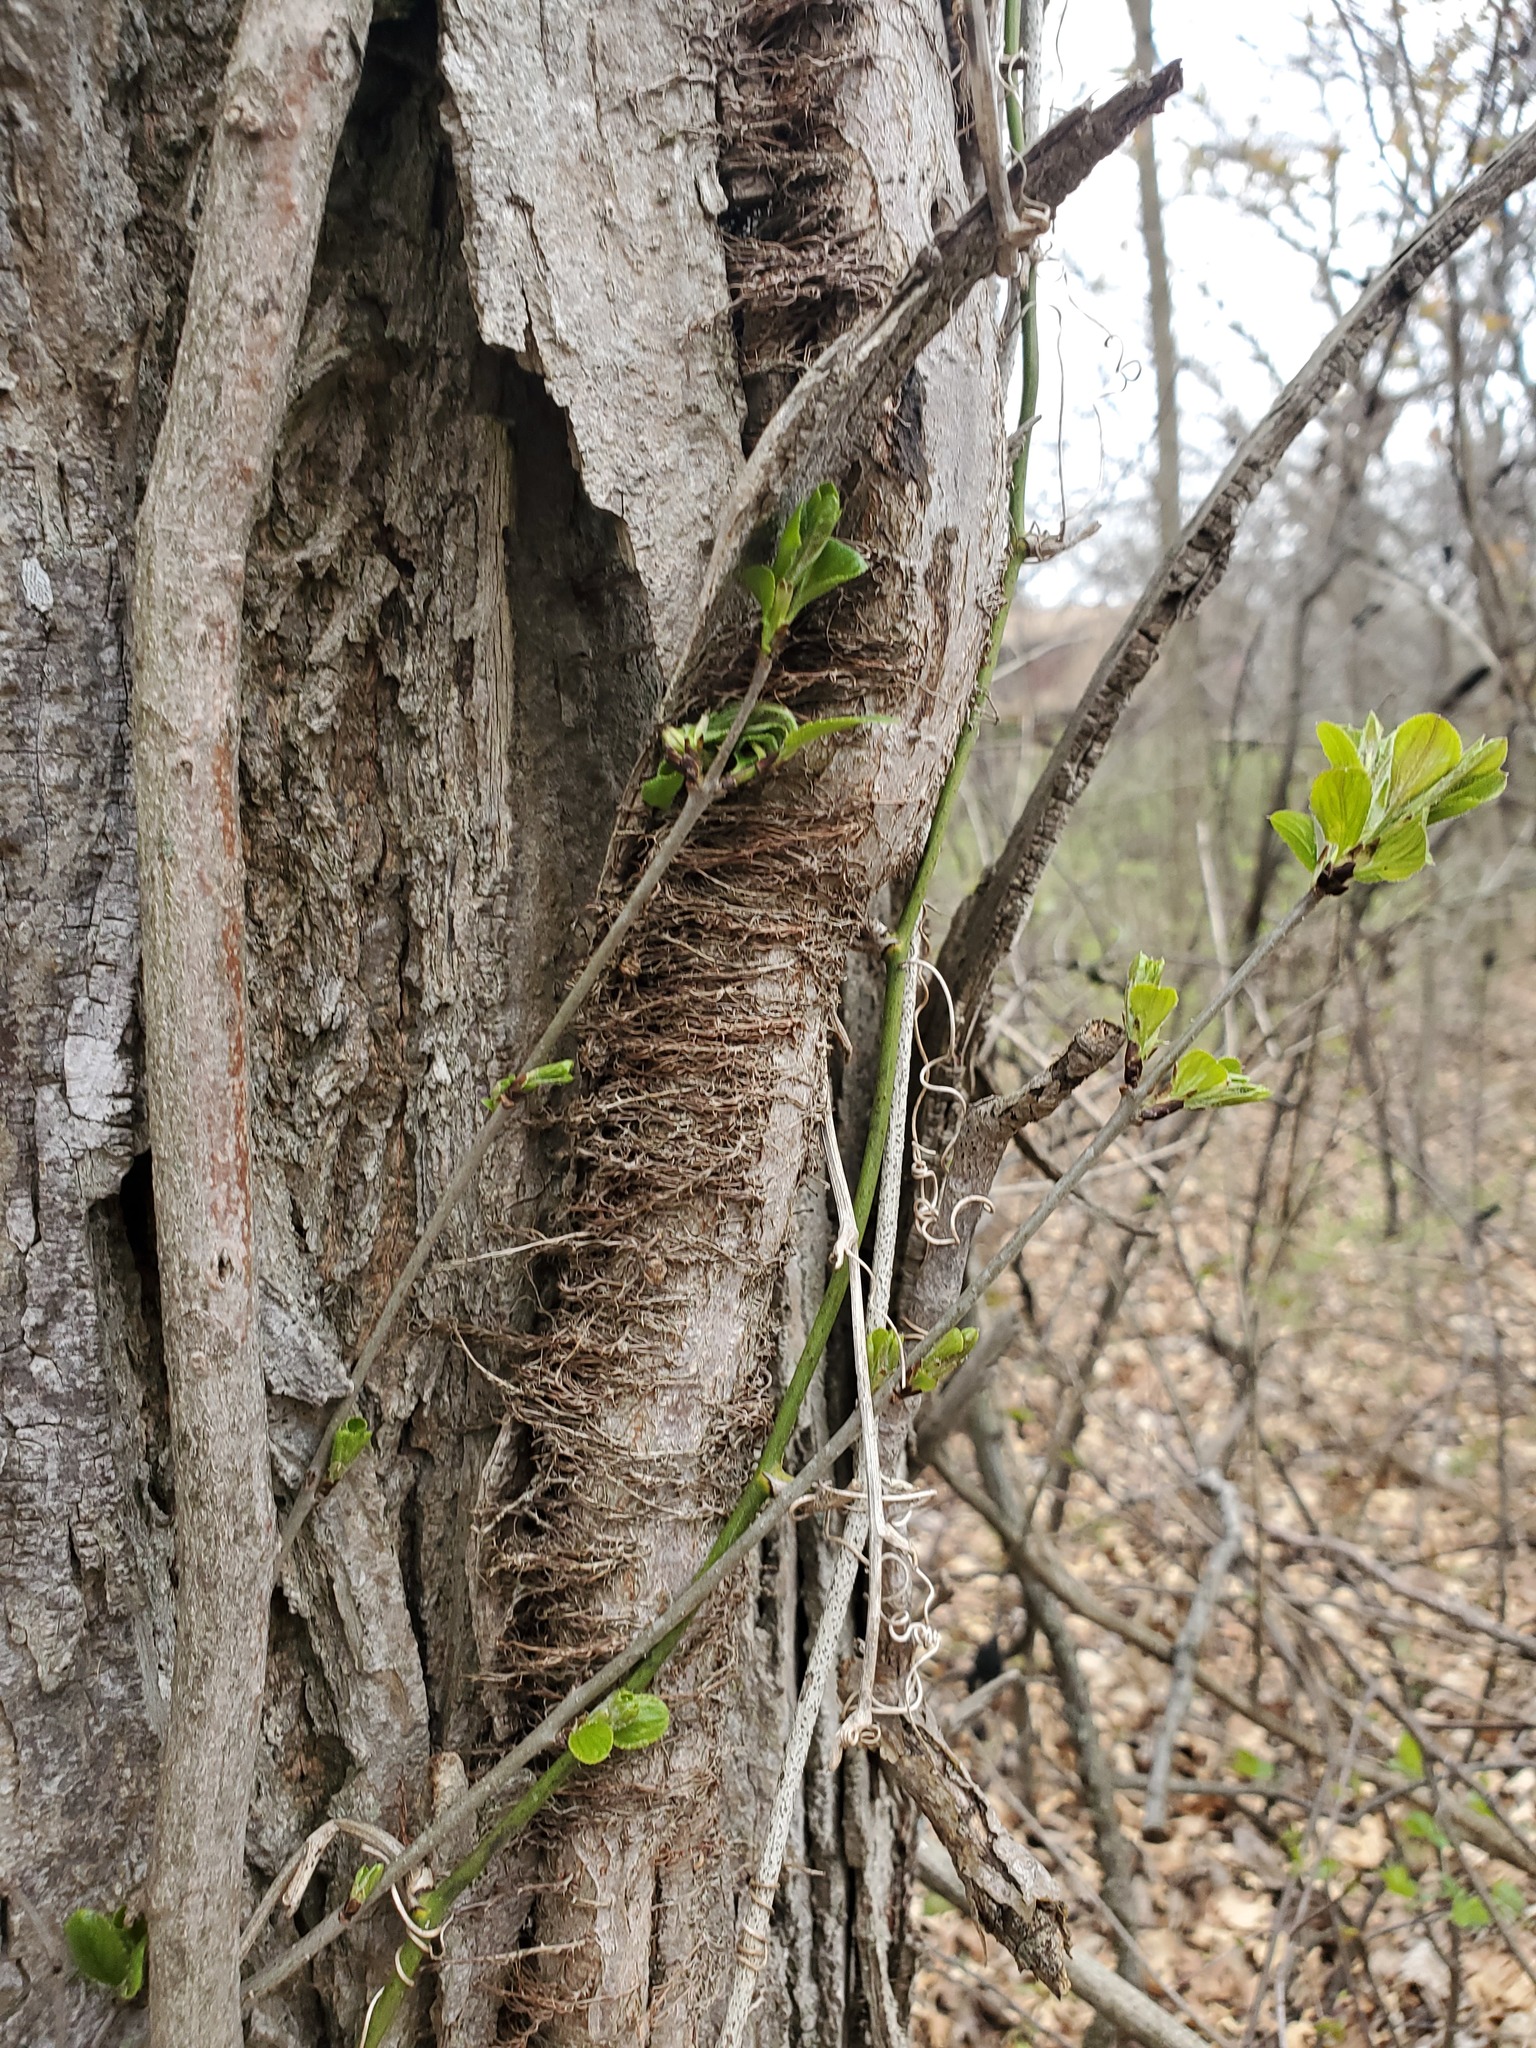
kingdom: Plantae
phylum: Tracheophyta
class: Magnoliopsida
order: Sapindales
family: Anacardiaceae
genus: Toxicodendron
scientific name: Toxicodendron radicans
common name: Poison ivy
